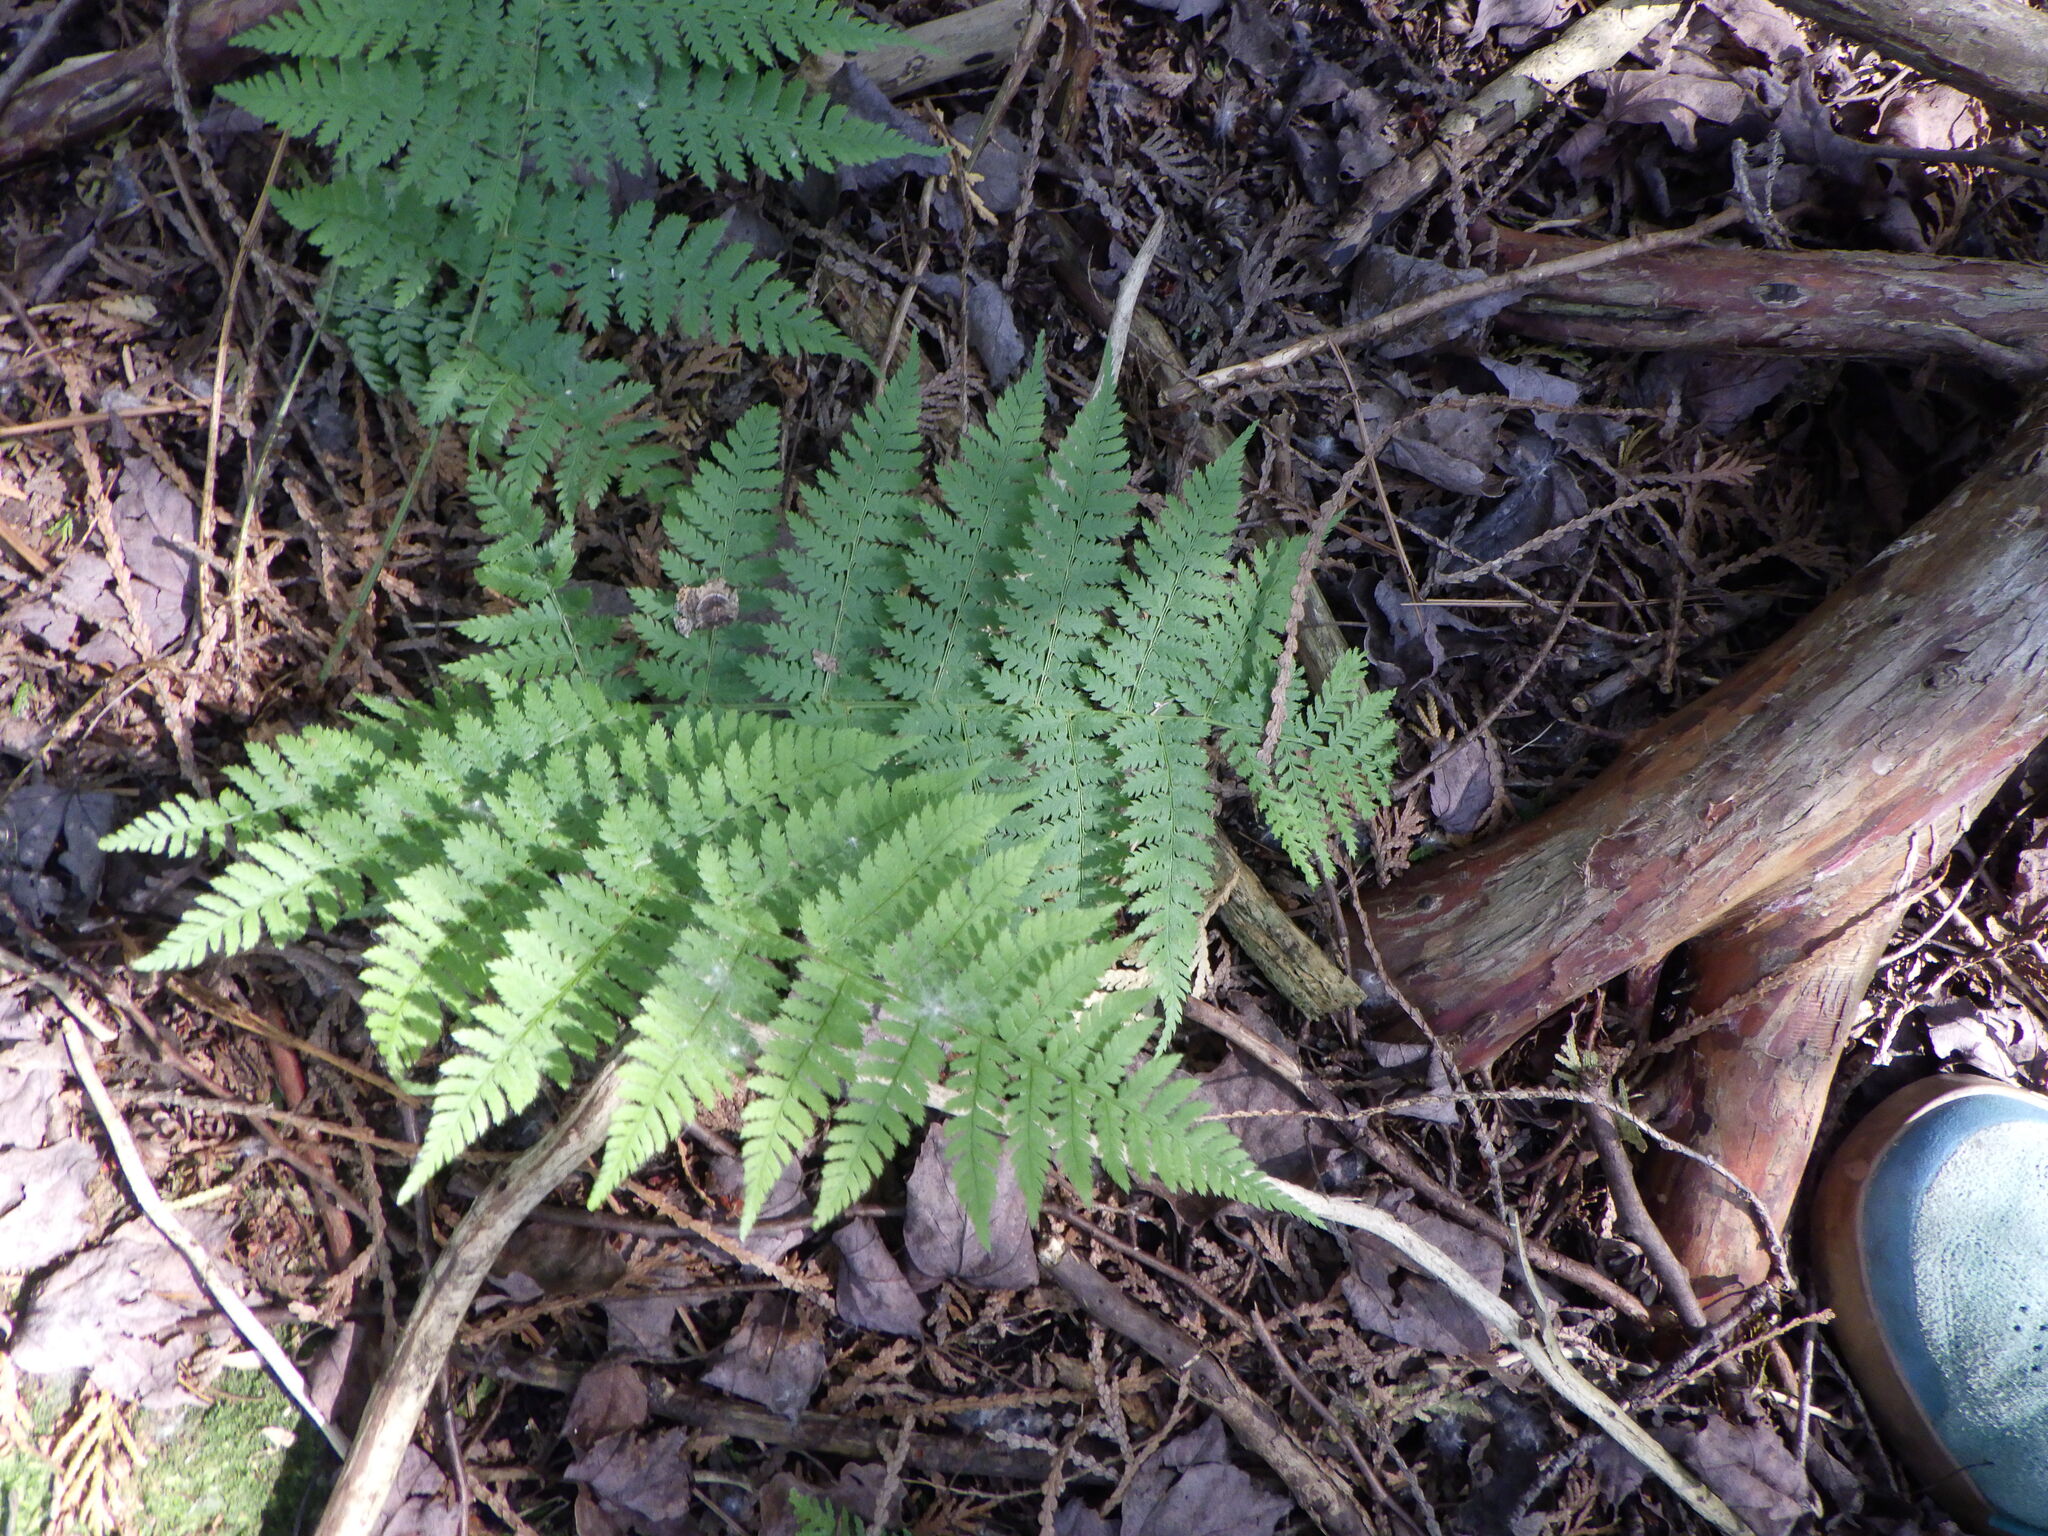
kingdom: Plantae
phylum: Tracheophyta
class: Polypodiopsida
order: Polypodiales
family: Dryopteridaceae
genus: Dryopteris
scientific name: Dryopteris intermedia
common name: Evergreen wood fern
